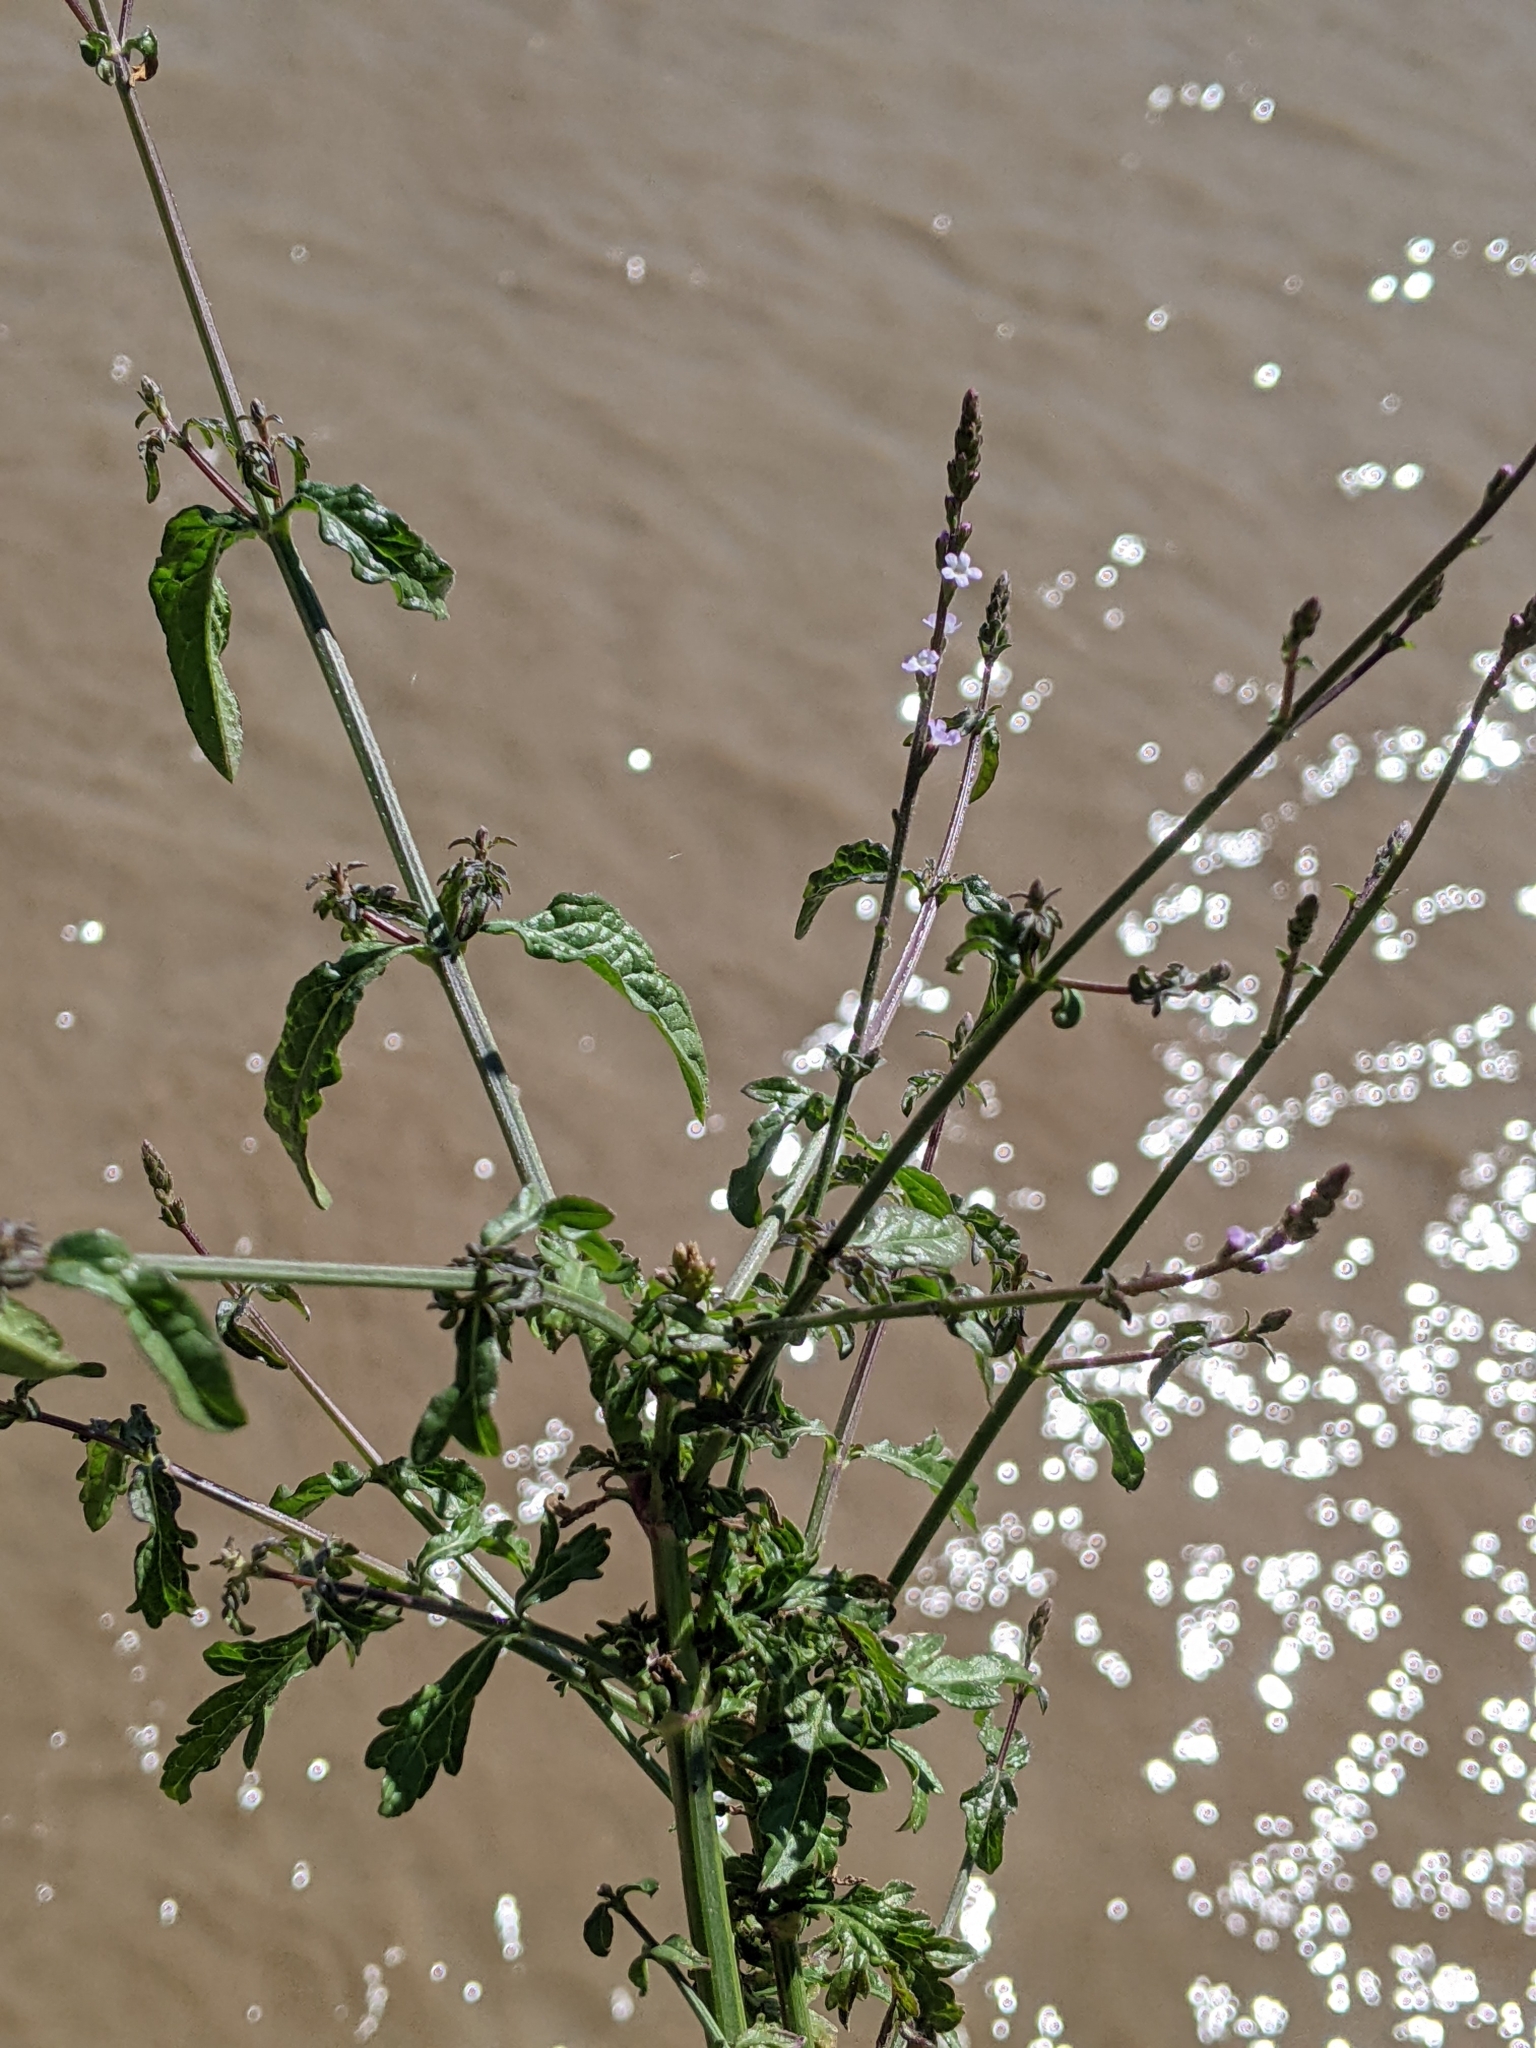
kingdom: Plantae
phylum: Tracheophyta
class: Magnoliopsida
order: Lamiales
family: Verbenaceae
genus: Verbena
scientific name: Verbena officinalis
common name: Vervain
